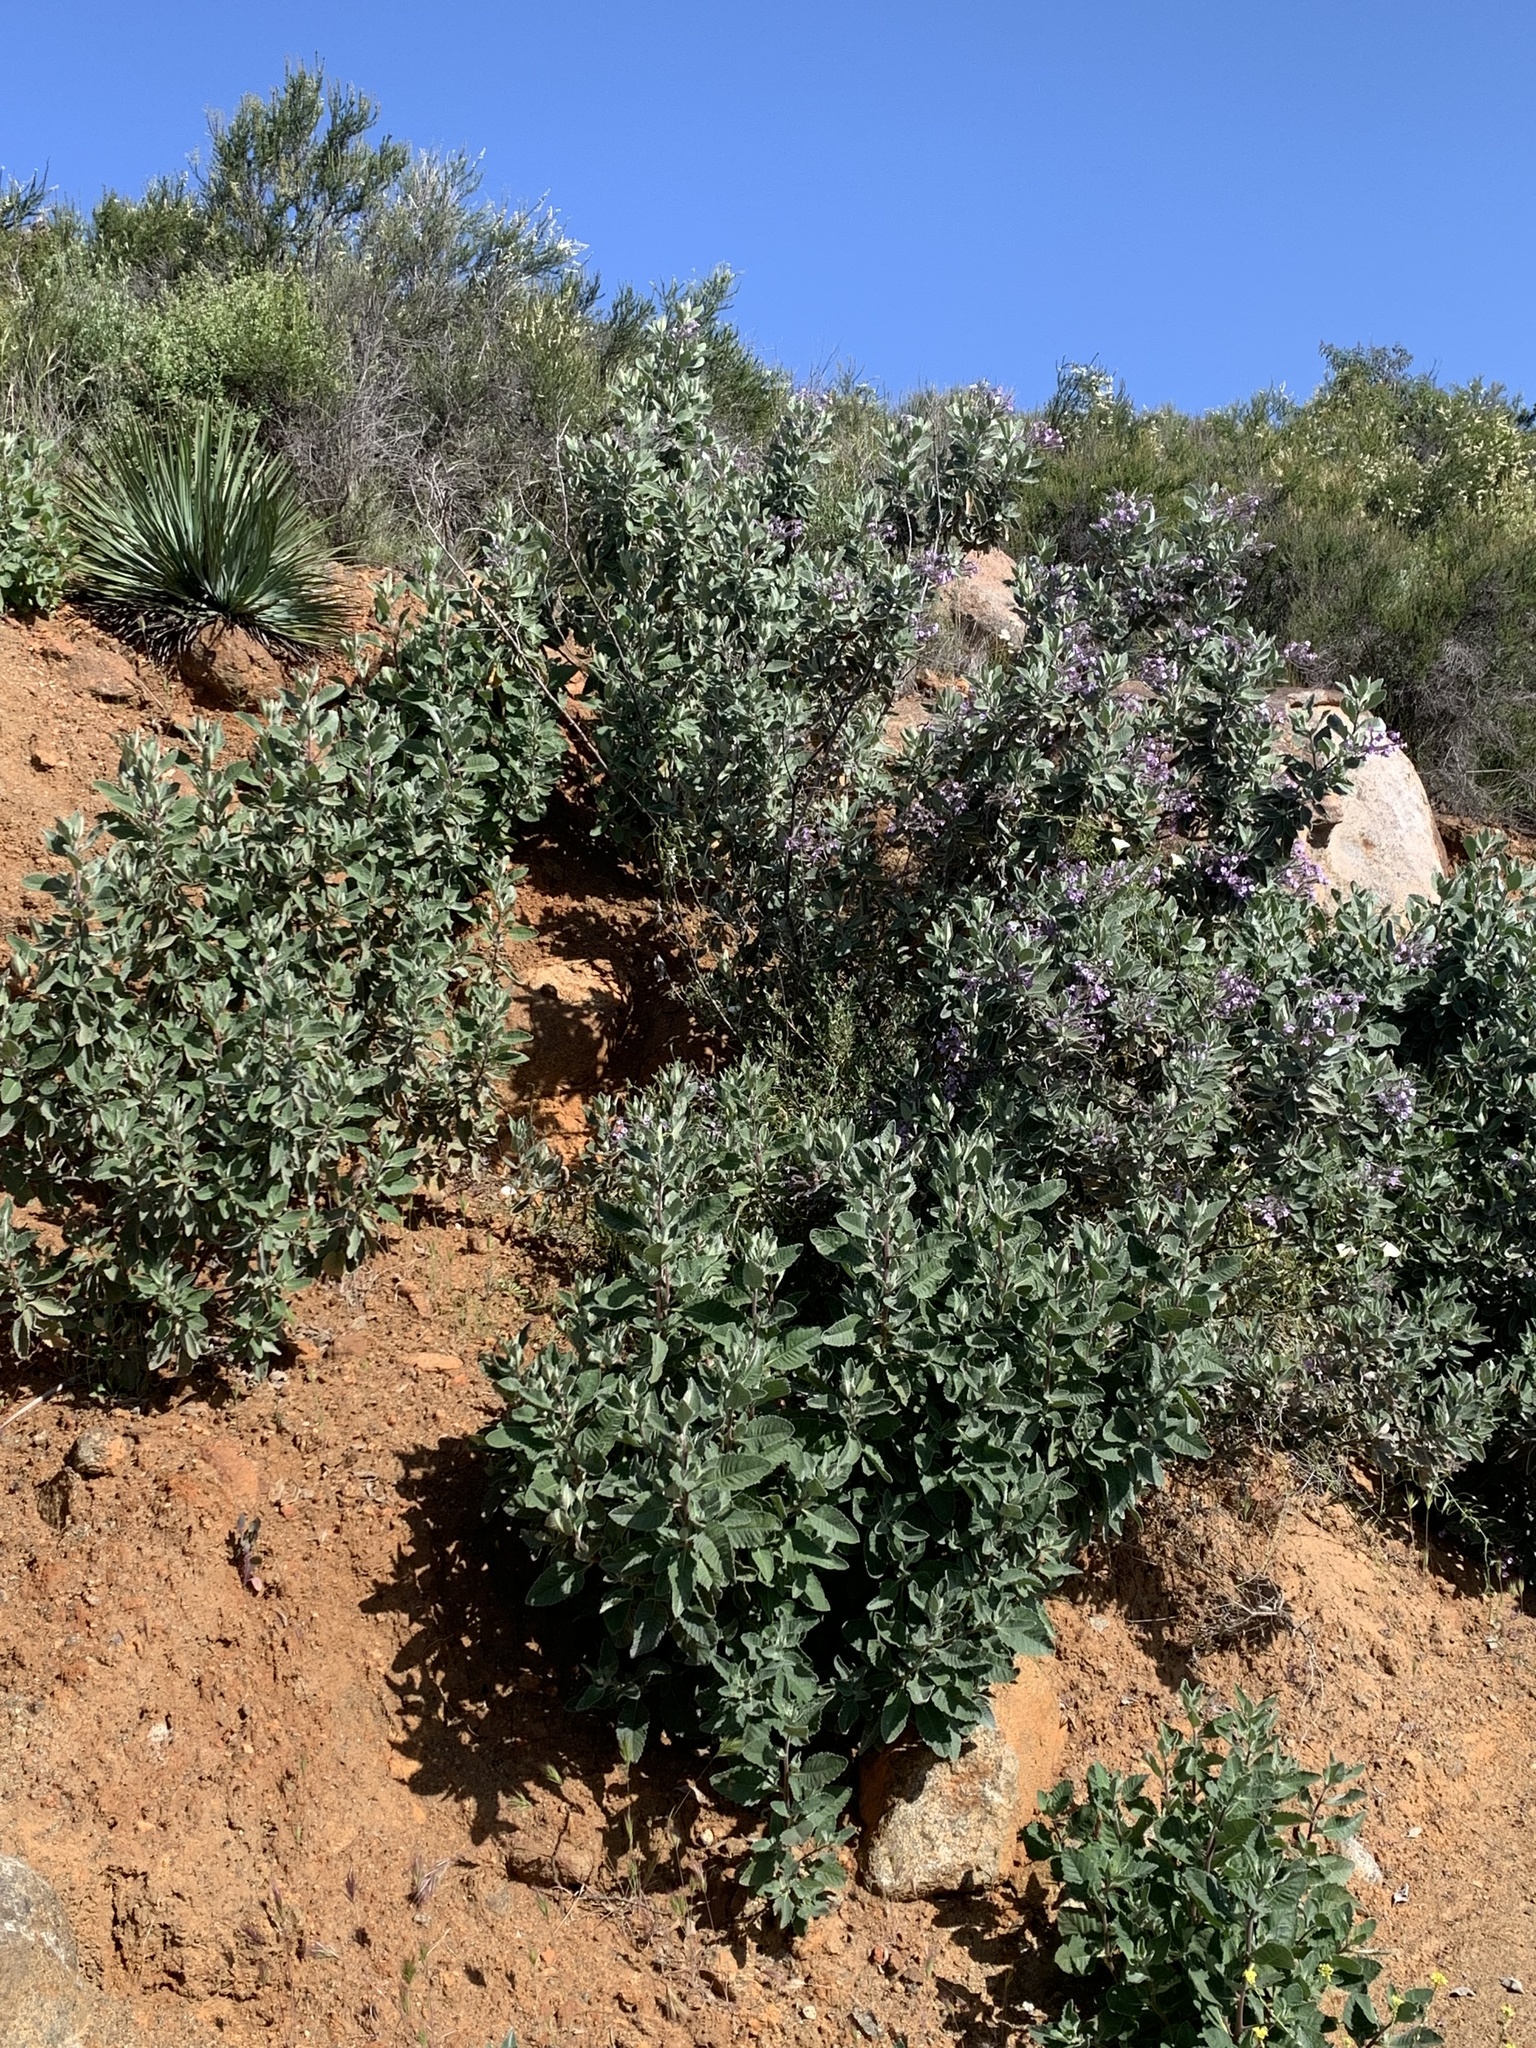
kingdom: Plantae
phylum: Tracheophyta
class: Magnoliopsida
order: Boraginales
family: Namaceae
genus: Eriodictyon
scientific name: Eriodictyon crassifolium
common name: Thick-leaf yerba-santa
